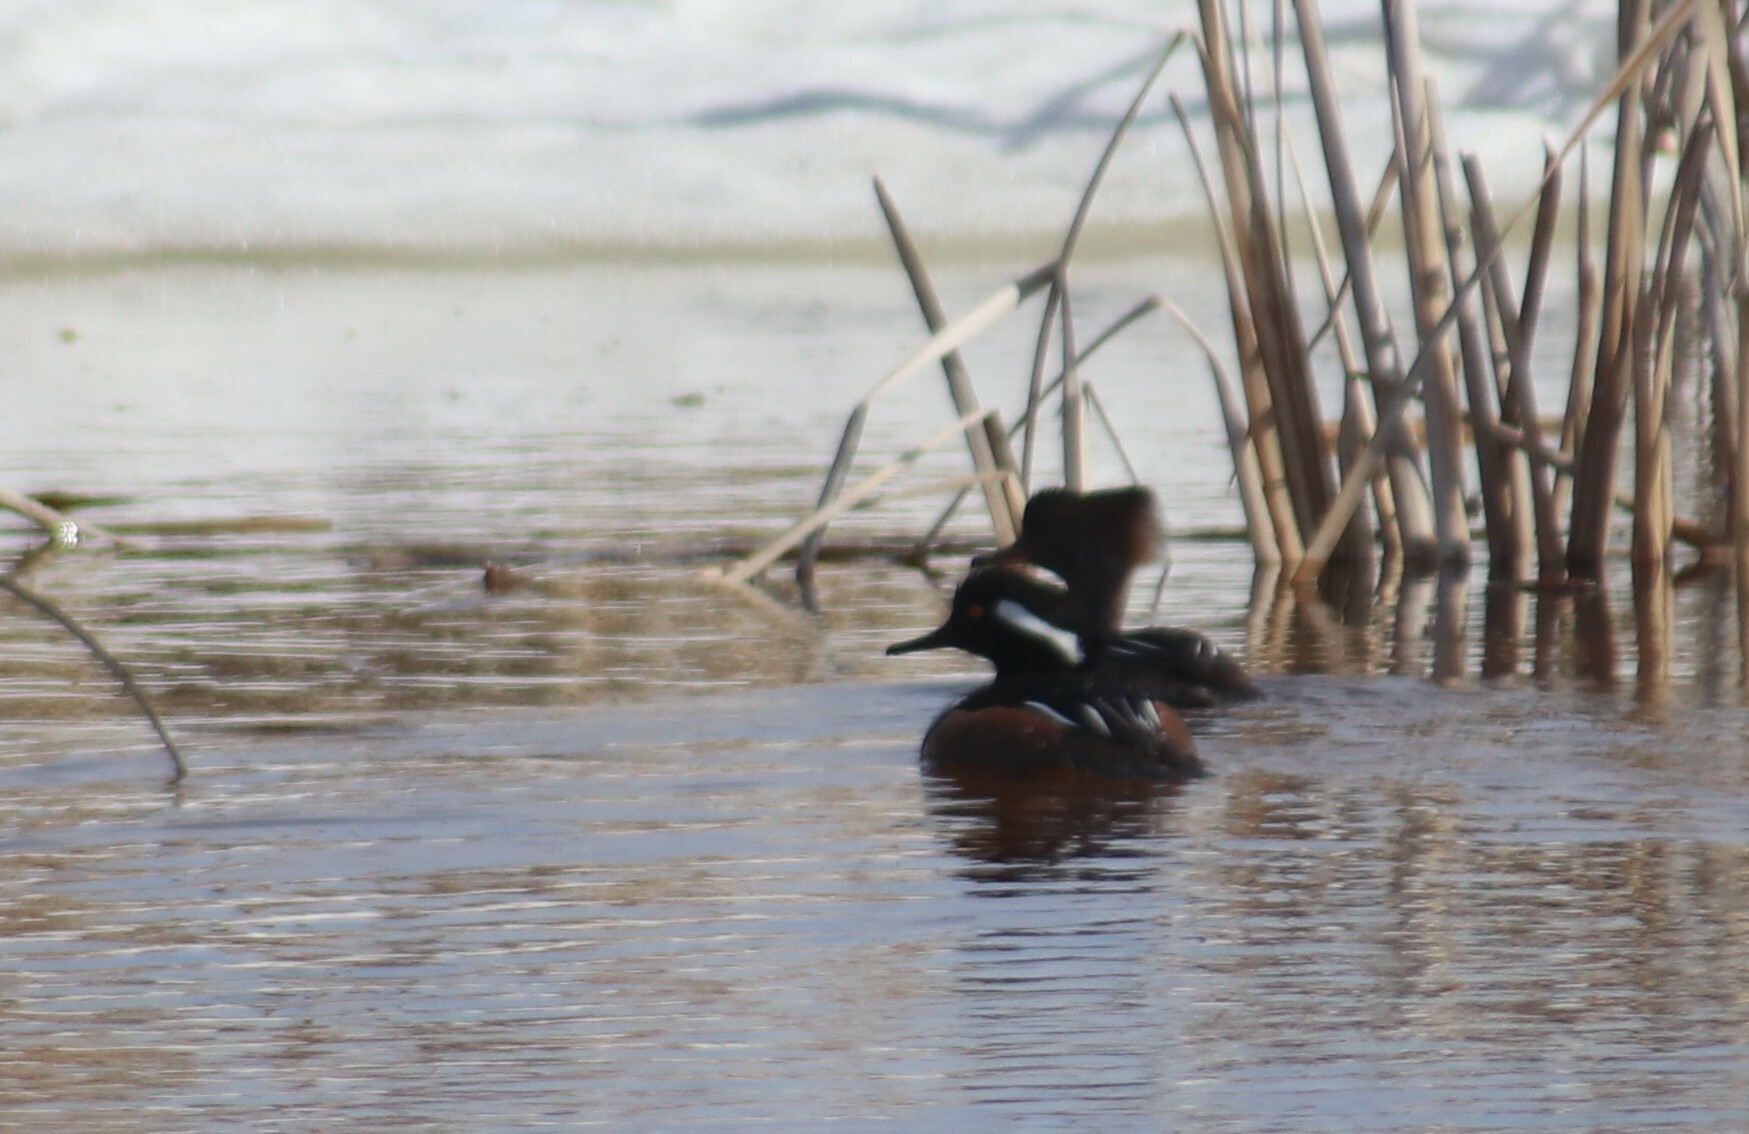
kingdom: Animalia
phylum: Chordata
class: Aves
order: Anseriformes
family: Anatidae
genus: Lophodytes
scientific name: Lophodytes cucullatus
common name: Hooded merganser
